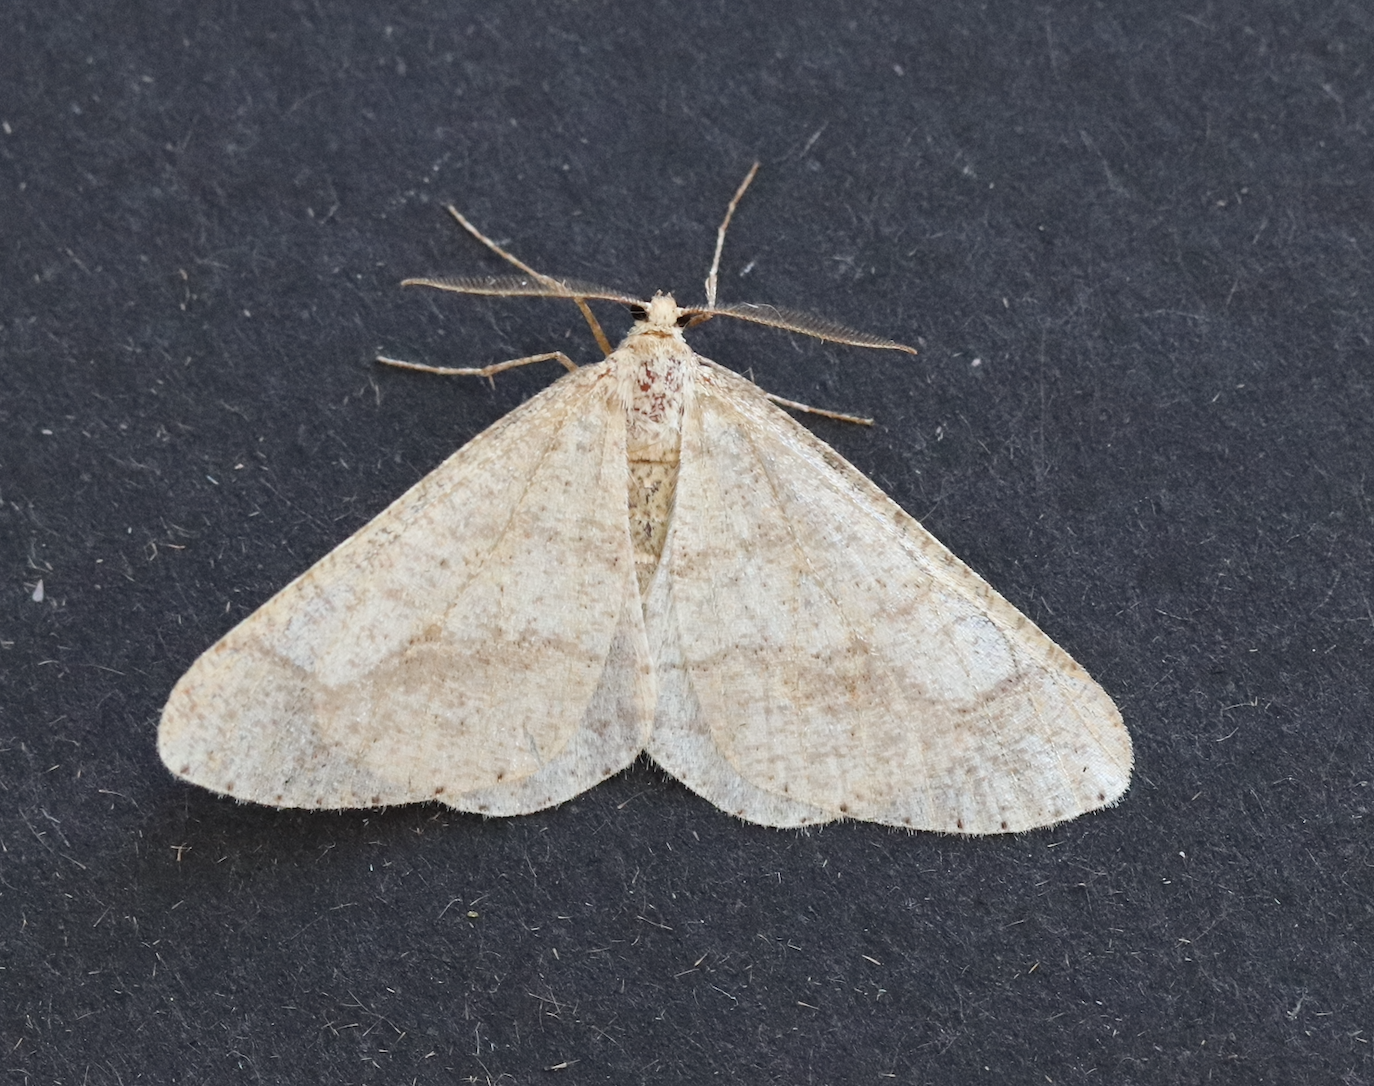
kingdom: Animalia
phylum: Arthropoda
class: Insecta
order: Lepidoptera
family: Geometridae
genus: Agriopis
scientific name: Agriopis marginaria
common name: Dotted border
